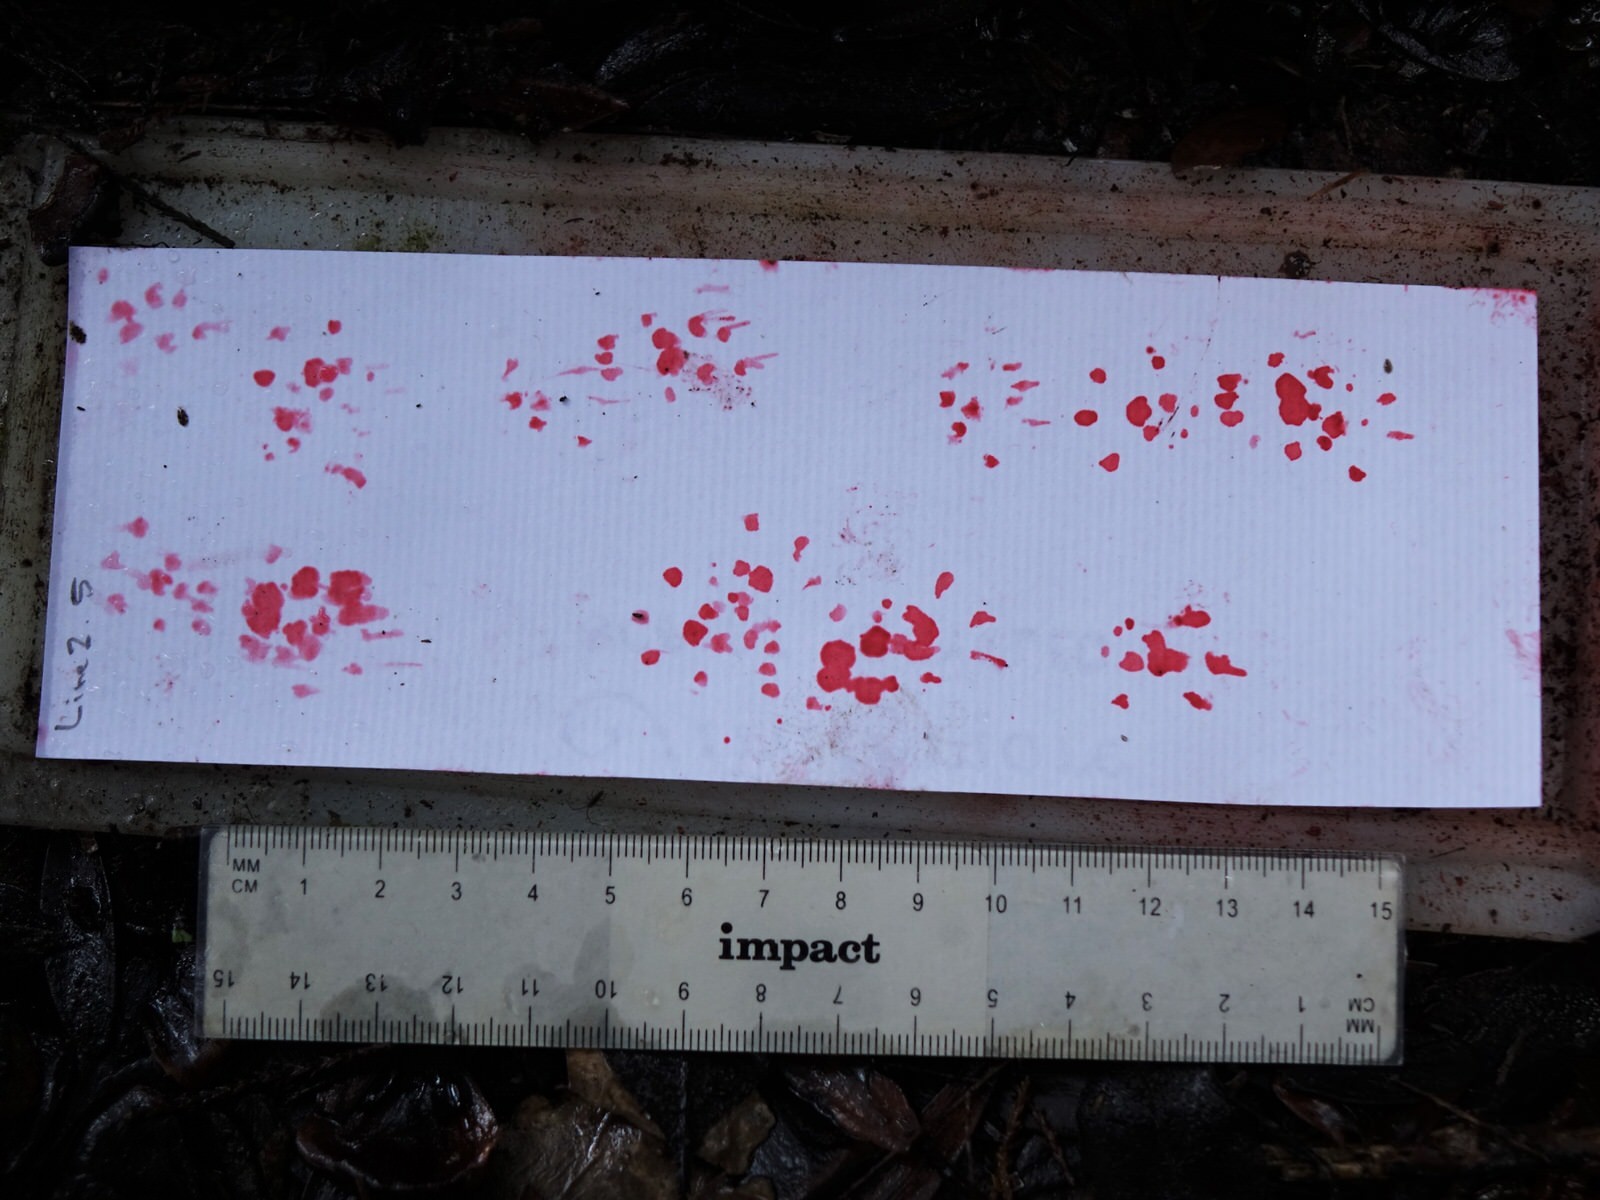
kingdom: Animalia
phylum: Chordata
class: Mammalia
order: Rodentia
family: Muridae
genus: Rattus
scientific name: Rattus rattus
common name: Black rat
